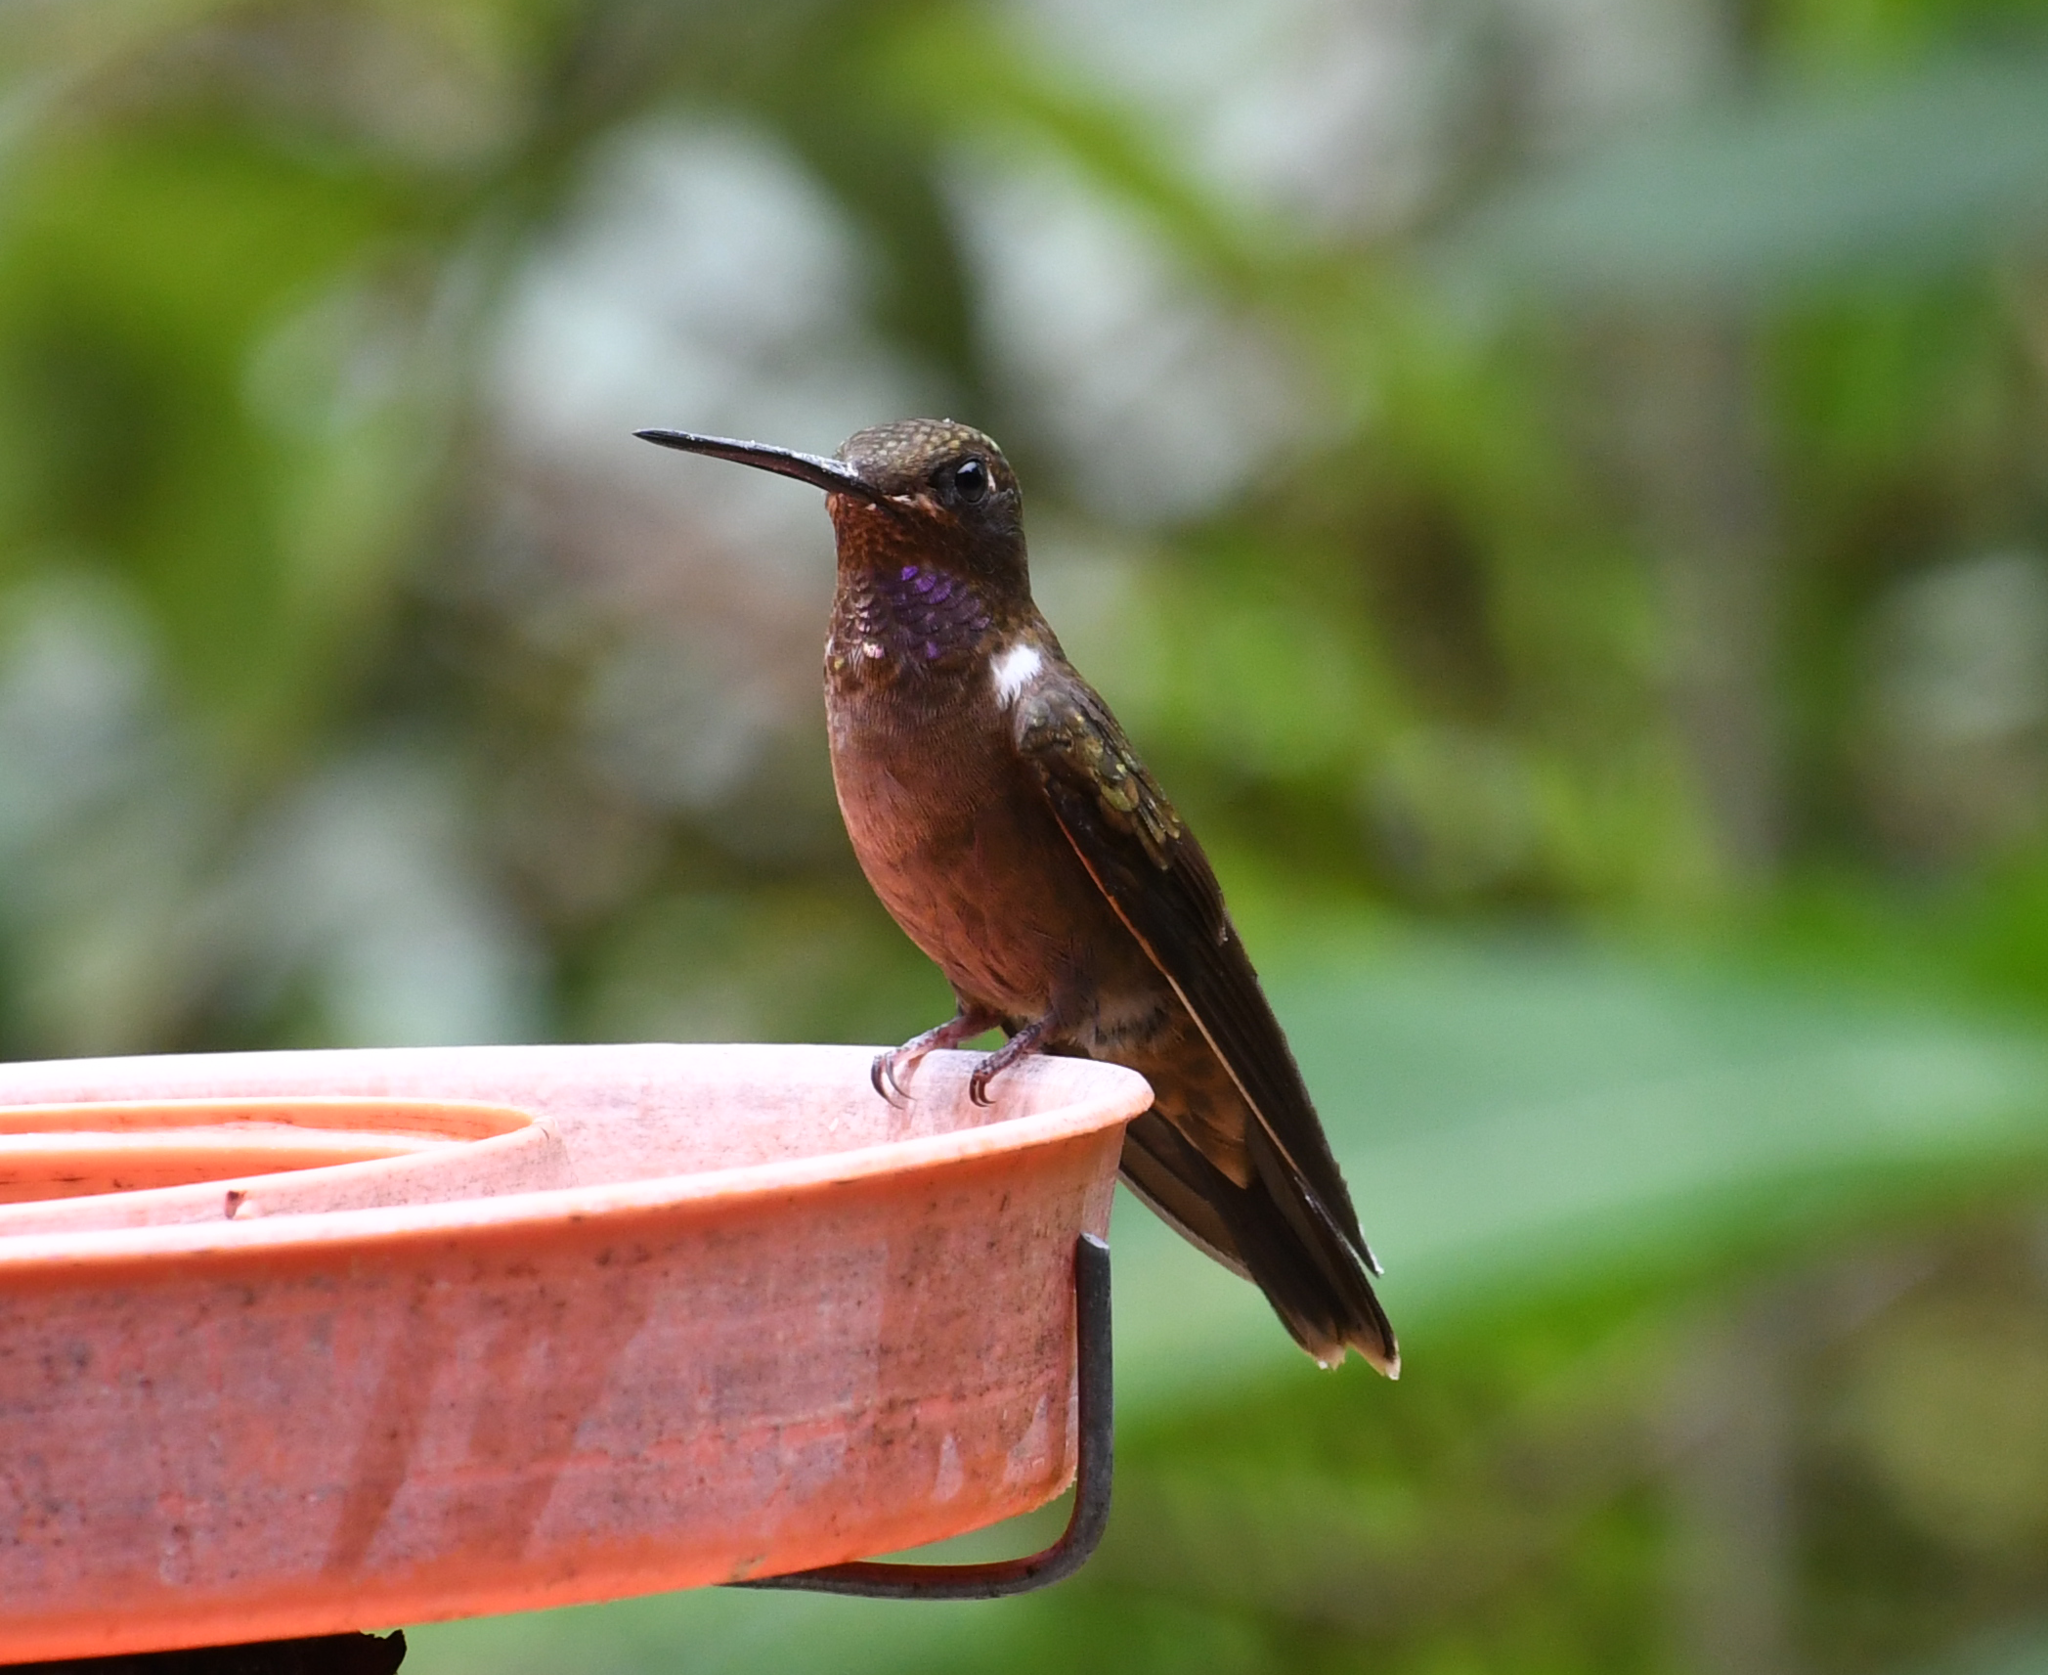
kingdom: Animalia
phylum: Chordata
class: Aves
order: Apodiformes
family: Trochilidae
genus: Coeligena
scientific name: Coeligena wilsoni
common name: Brown inca
